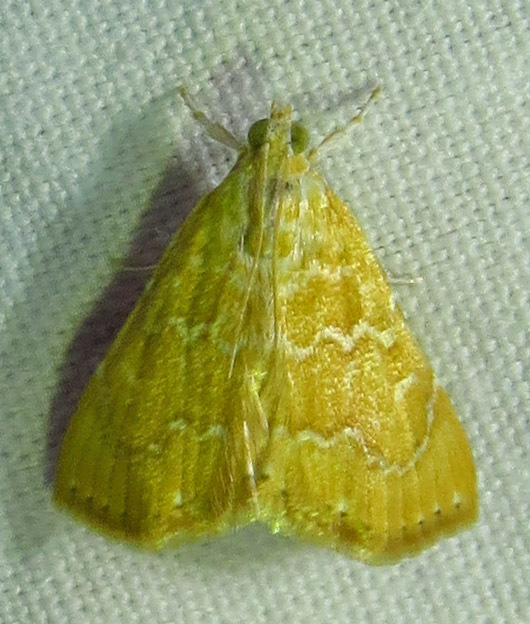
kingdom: Animalia
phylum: Arthropoda
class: Insecta
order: Lepidoptera
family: Crambidae
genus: Glaphyria
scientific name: Glaphyria sesquistrialis
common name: White-roped glaphyria
